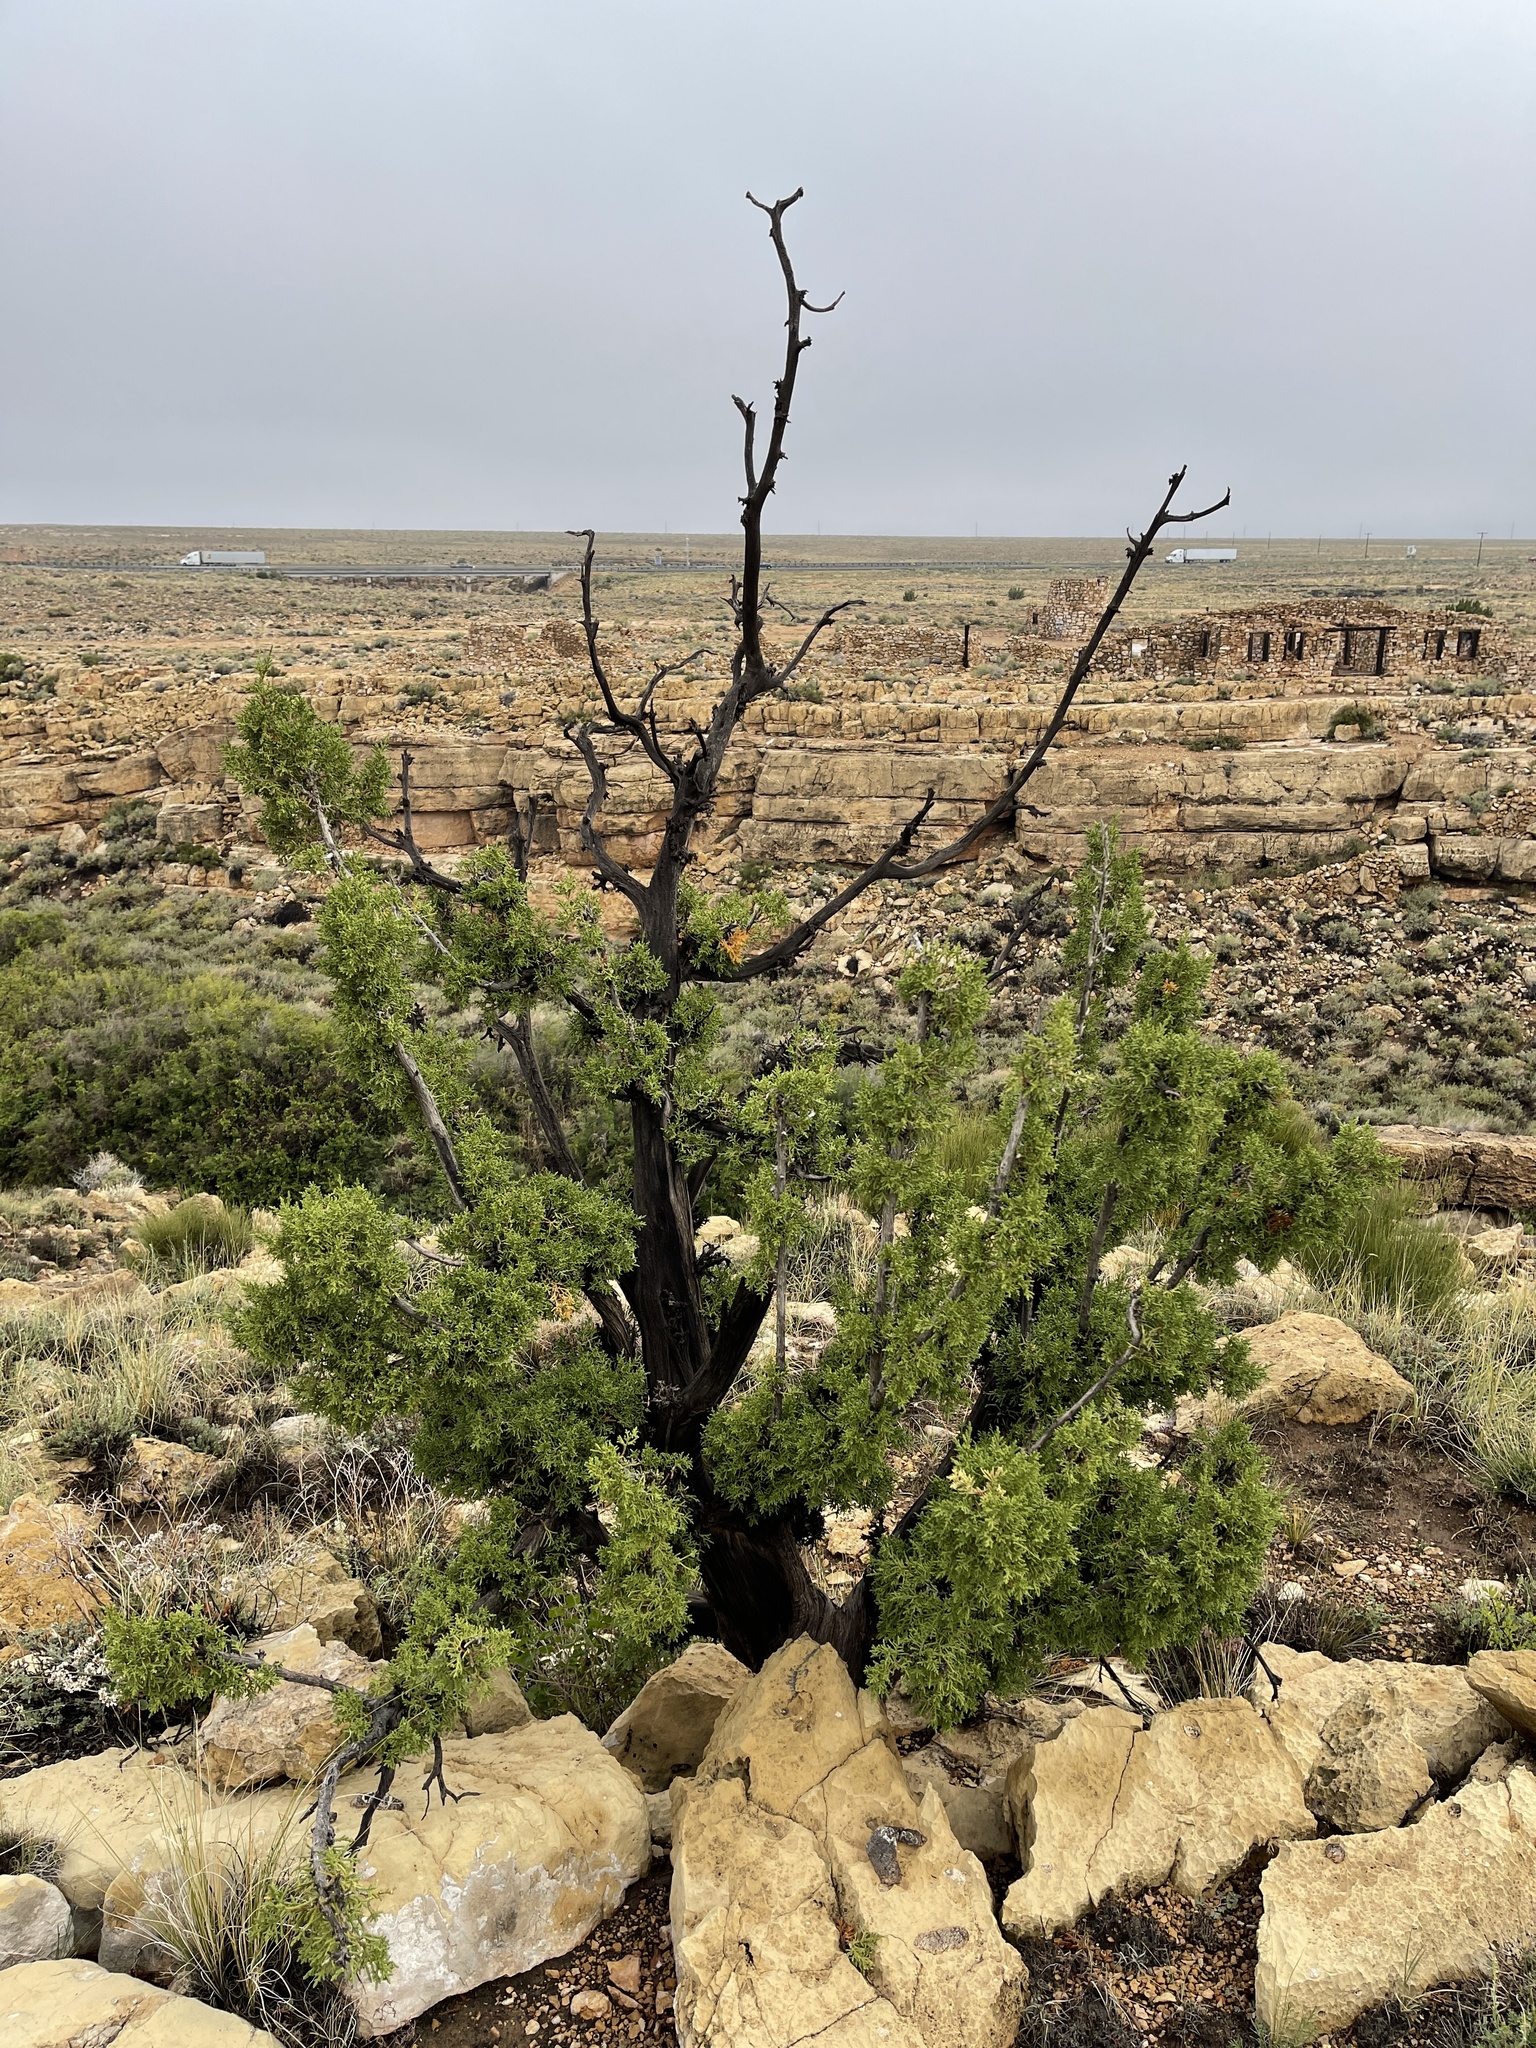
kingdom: Plantae
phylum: Tracheophyta
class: Pinopsida
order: Pinales
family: Cupressaceae
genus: Juniperus
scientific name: Juniperus monosperma
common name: One-seed juniper
